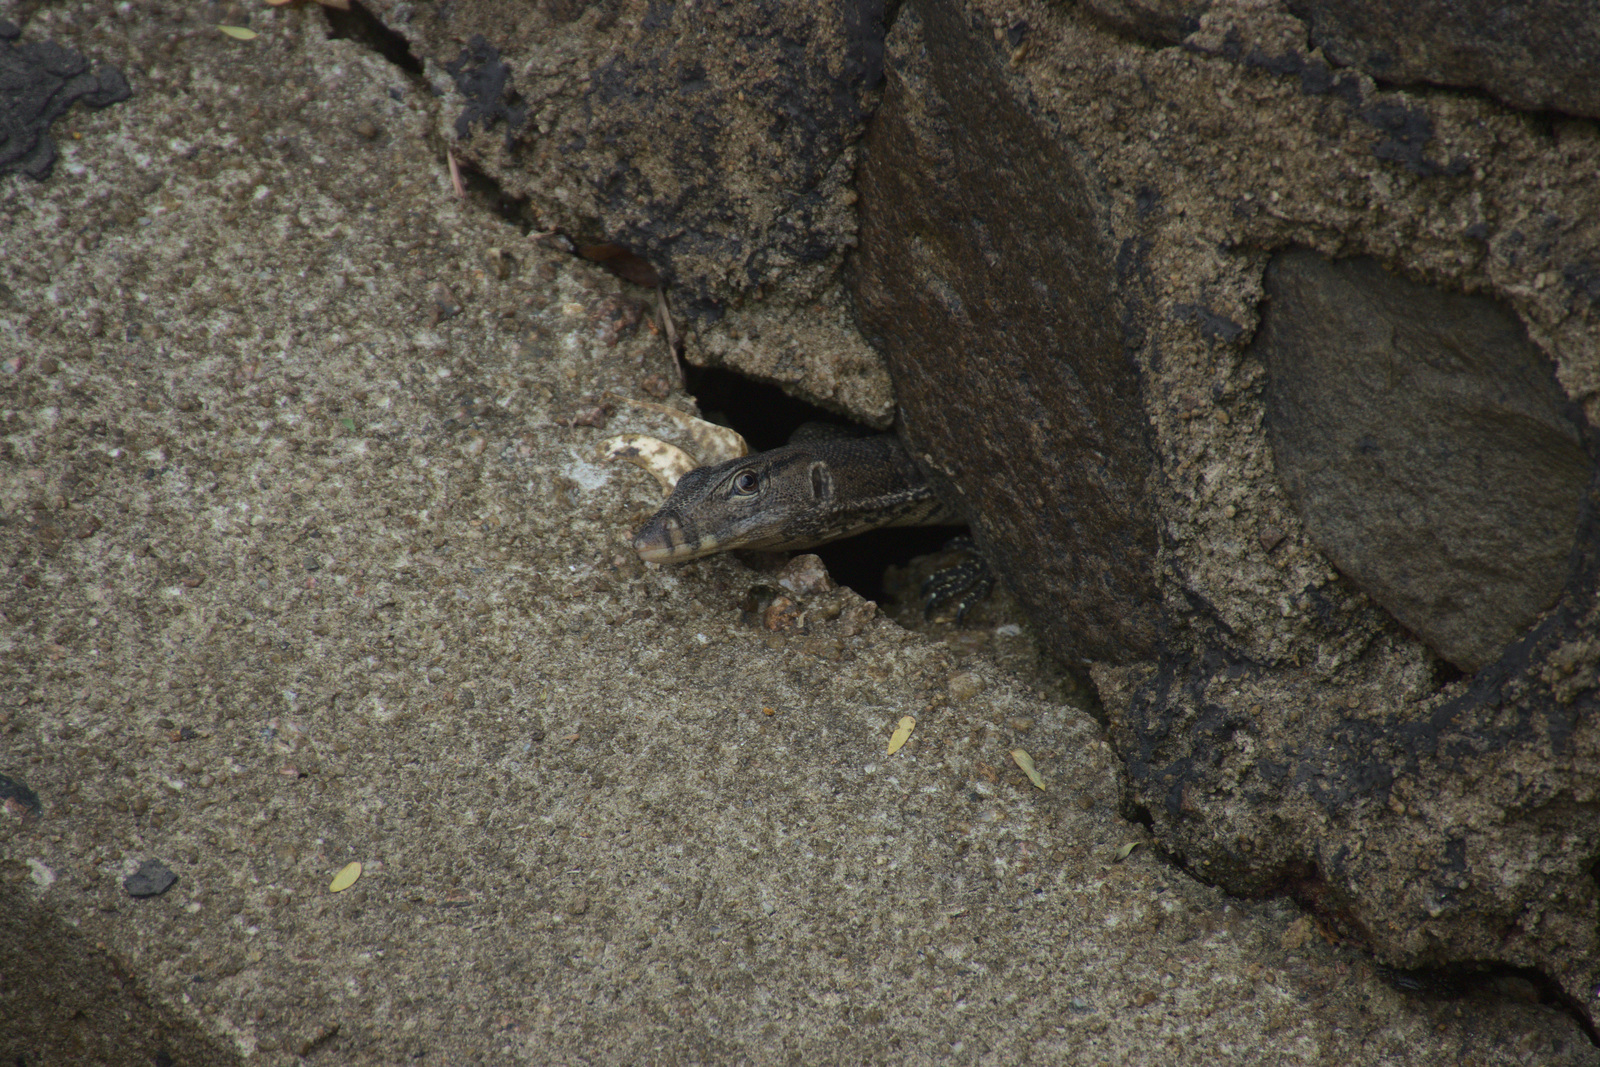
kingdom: Animalia
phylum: Chordata
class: Squamata
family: Varanidae
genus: Varanus
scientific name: Varanus salvator
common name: Common water monitor
